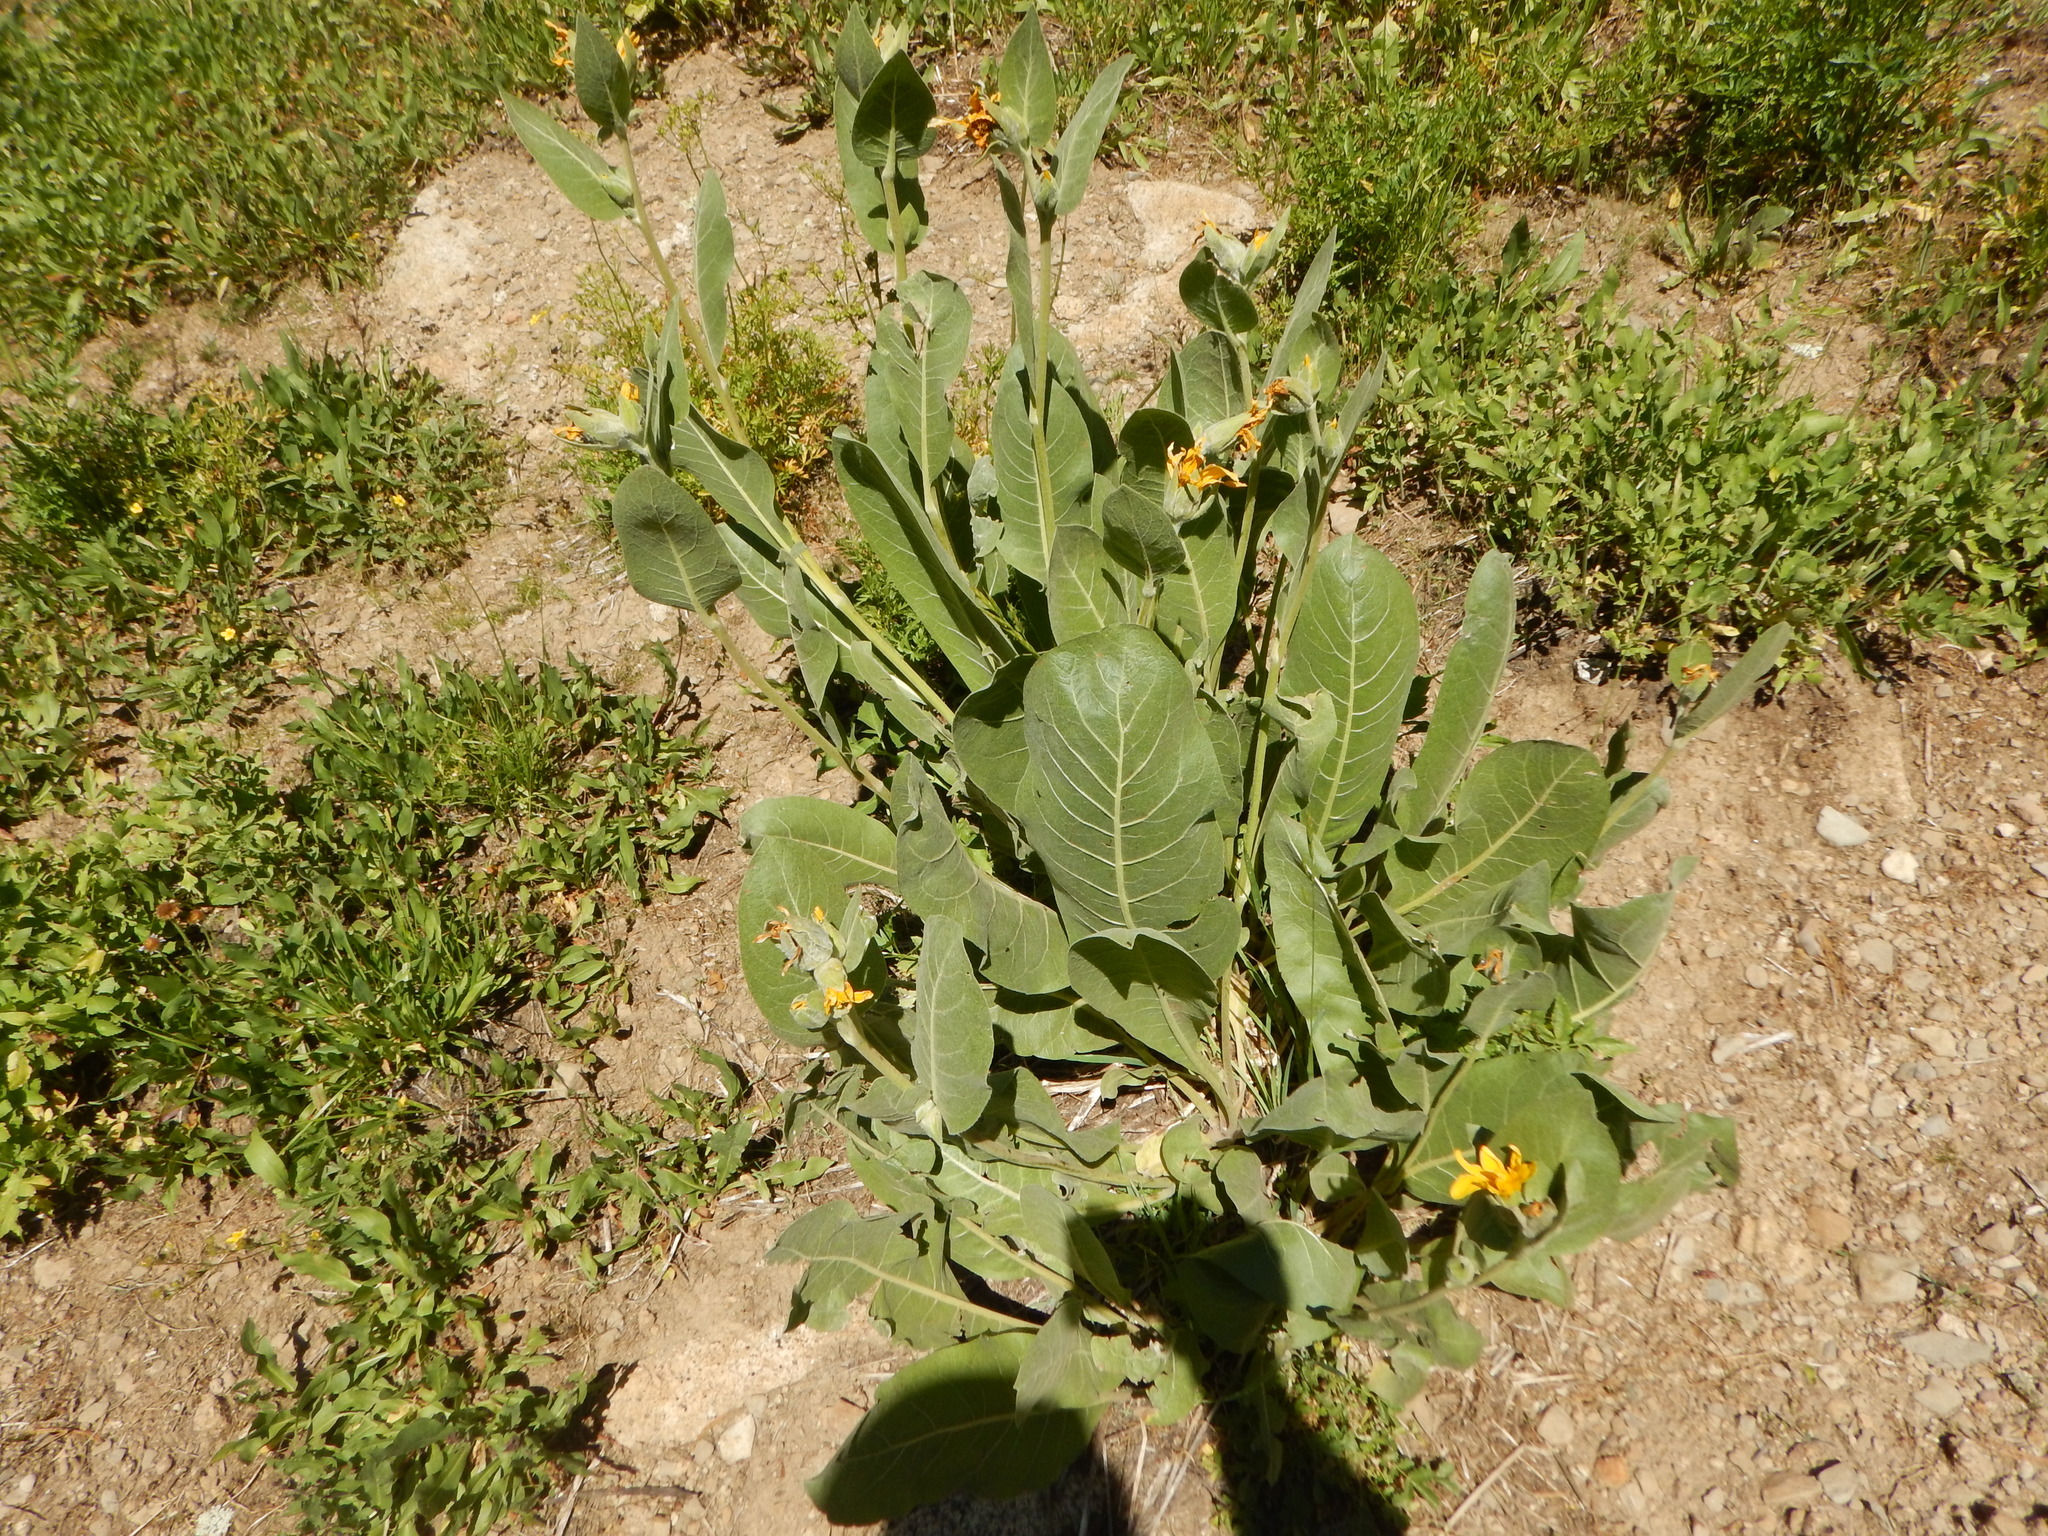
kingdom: Plantae
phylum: Tracheophyta
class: Magnoliopsida
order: Asterales
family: Asteraceae
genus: Wyethia
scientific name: Wyethia mollis
